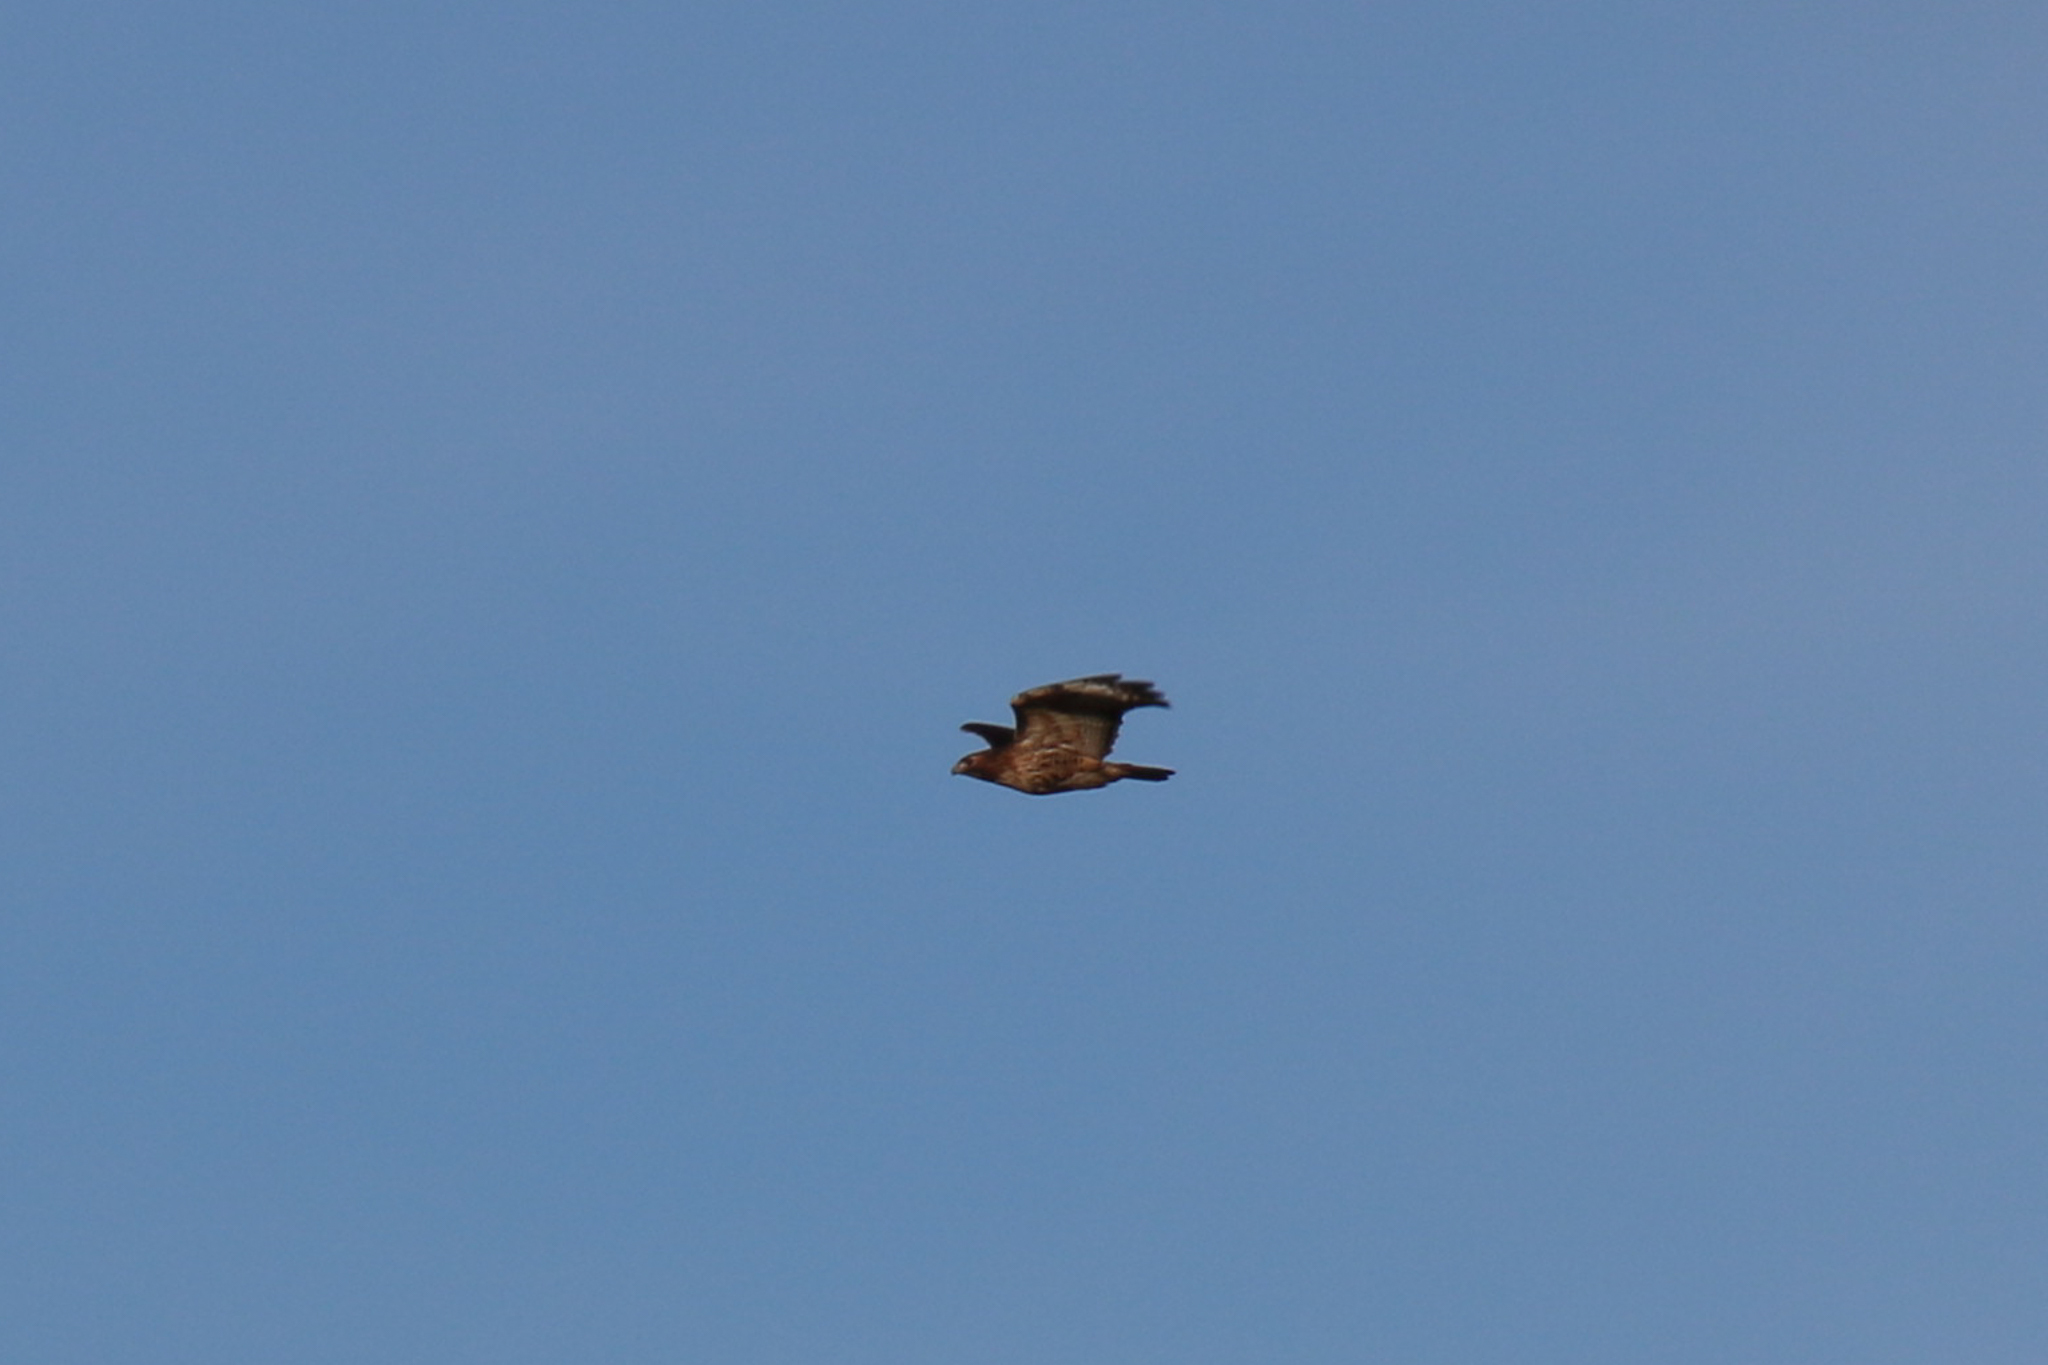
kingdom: Animalia
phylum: Chordata
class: Aves
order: Accipitriformes
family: Accipitridae
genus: Buteo
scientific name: Buteo jamaicensis
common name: Red-tailed hawk
